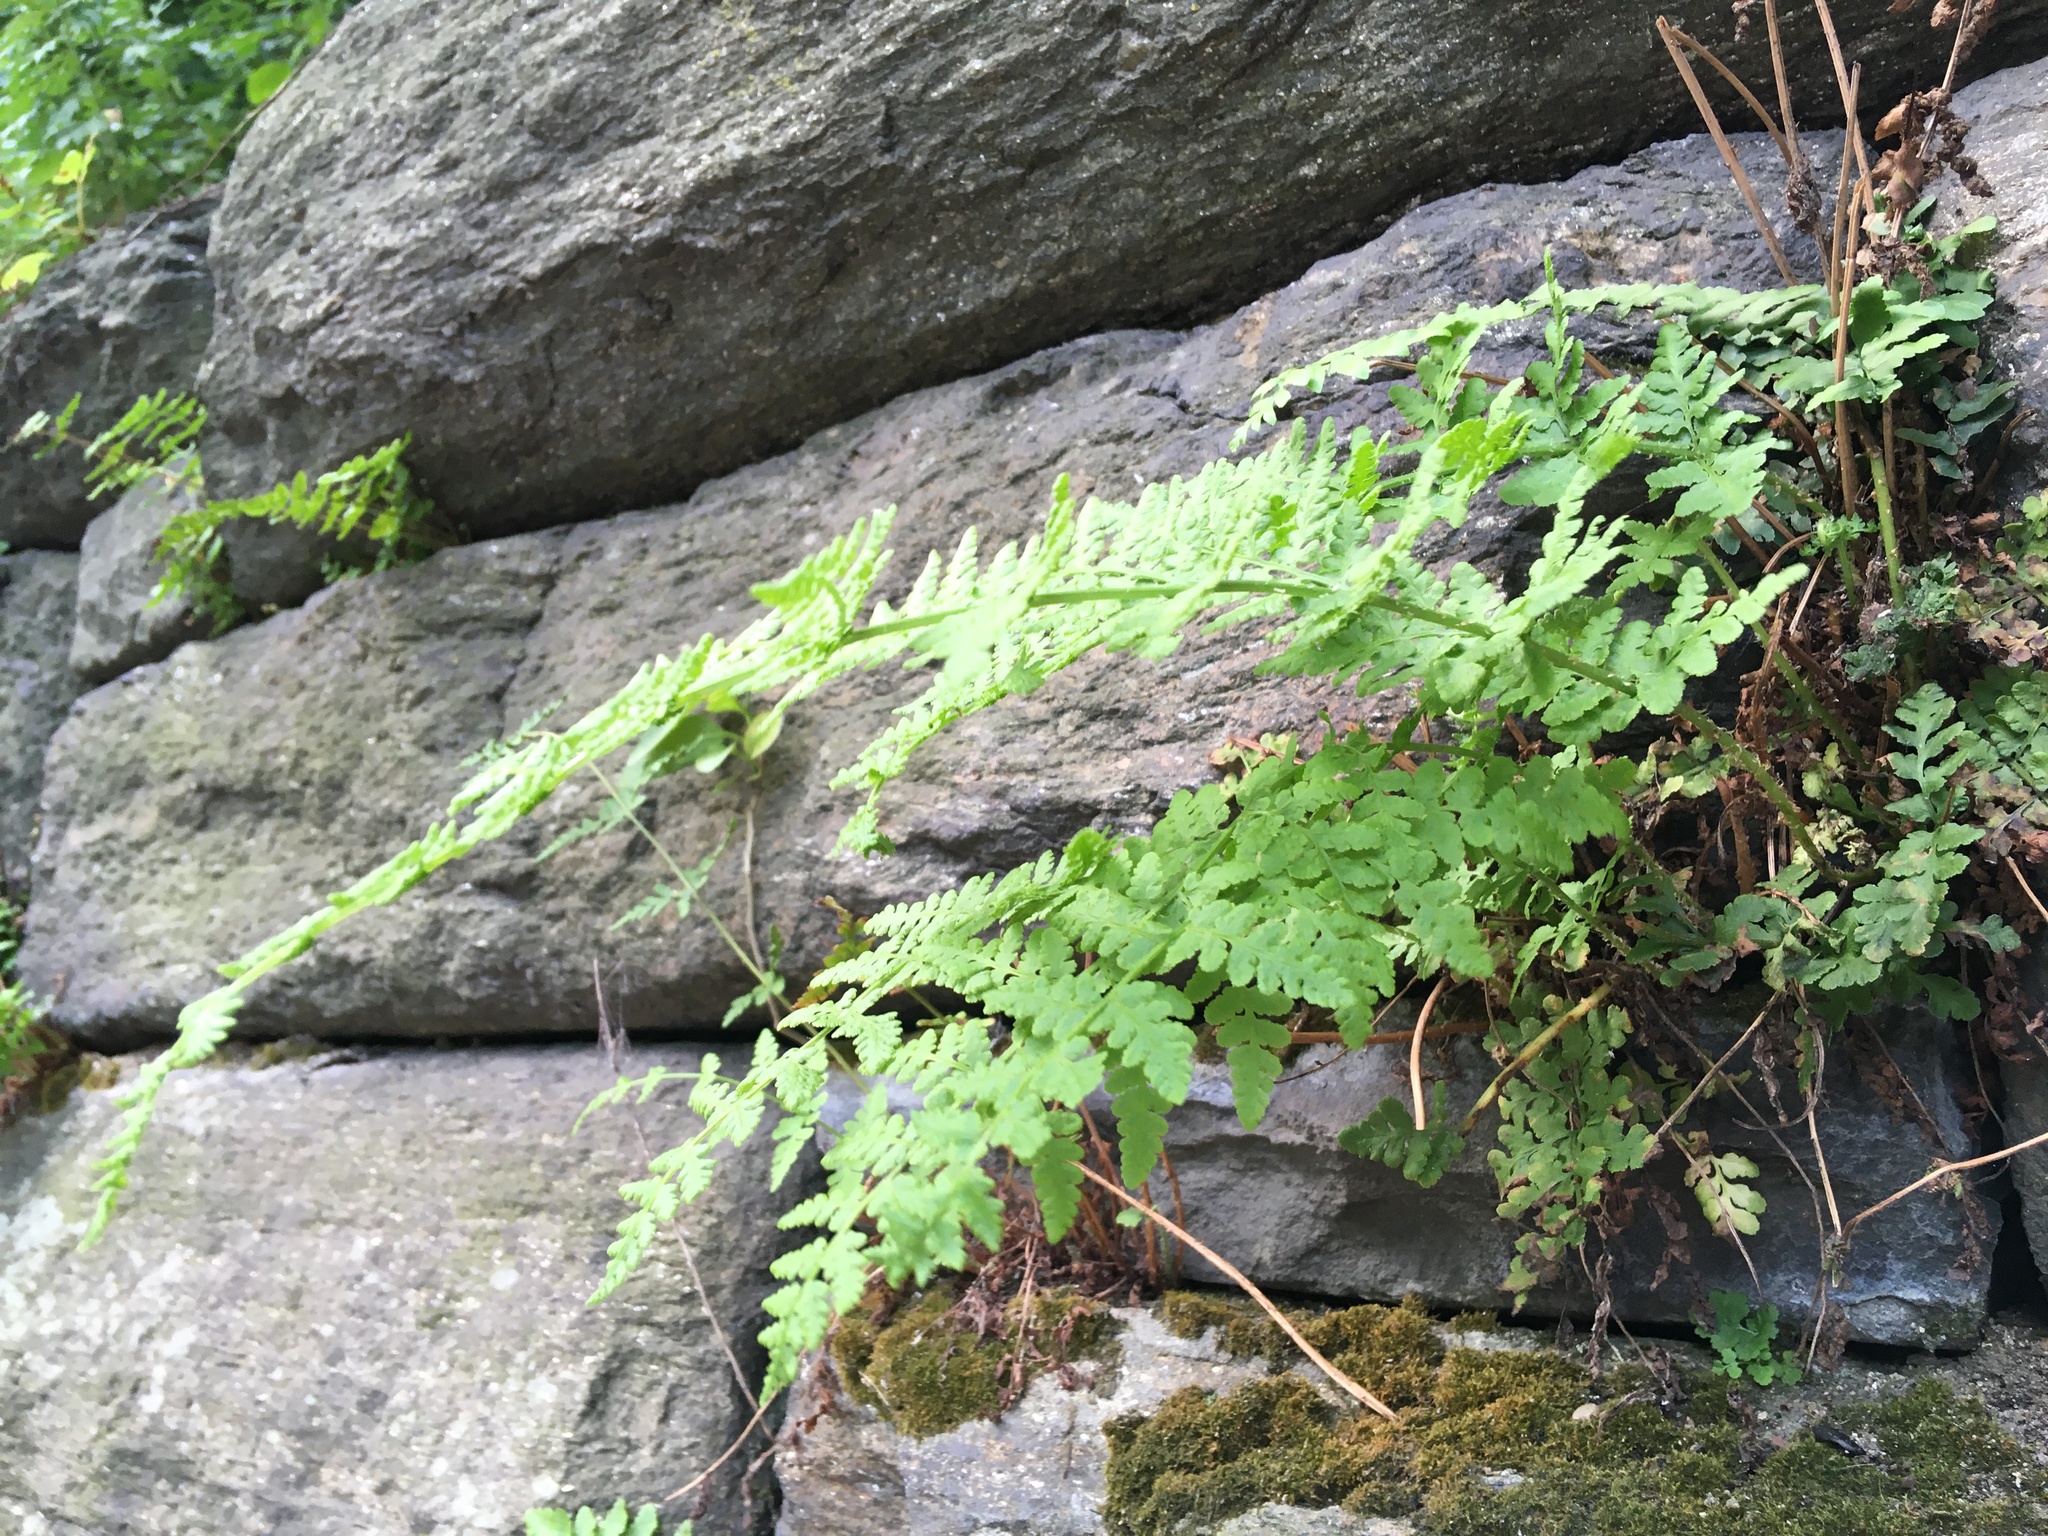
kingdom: Plantae
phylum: Tracheophyta
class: Polypodiopsida
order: Polypodiales
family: Woodsiaceae
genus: Physematium
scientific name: Physematium obtusum
